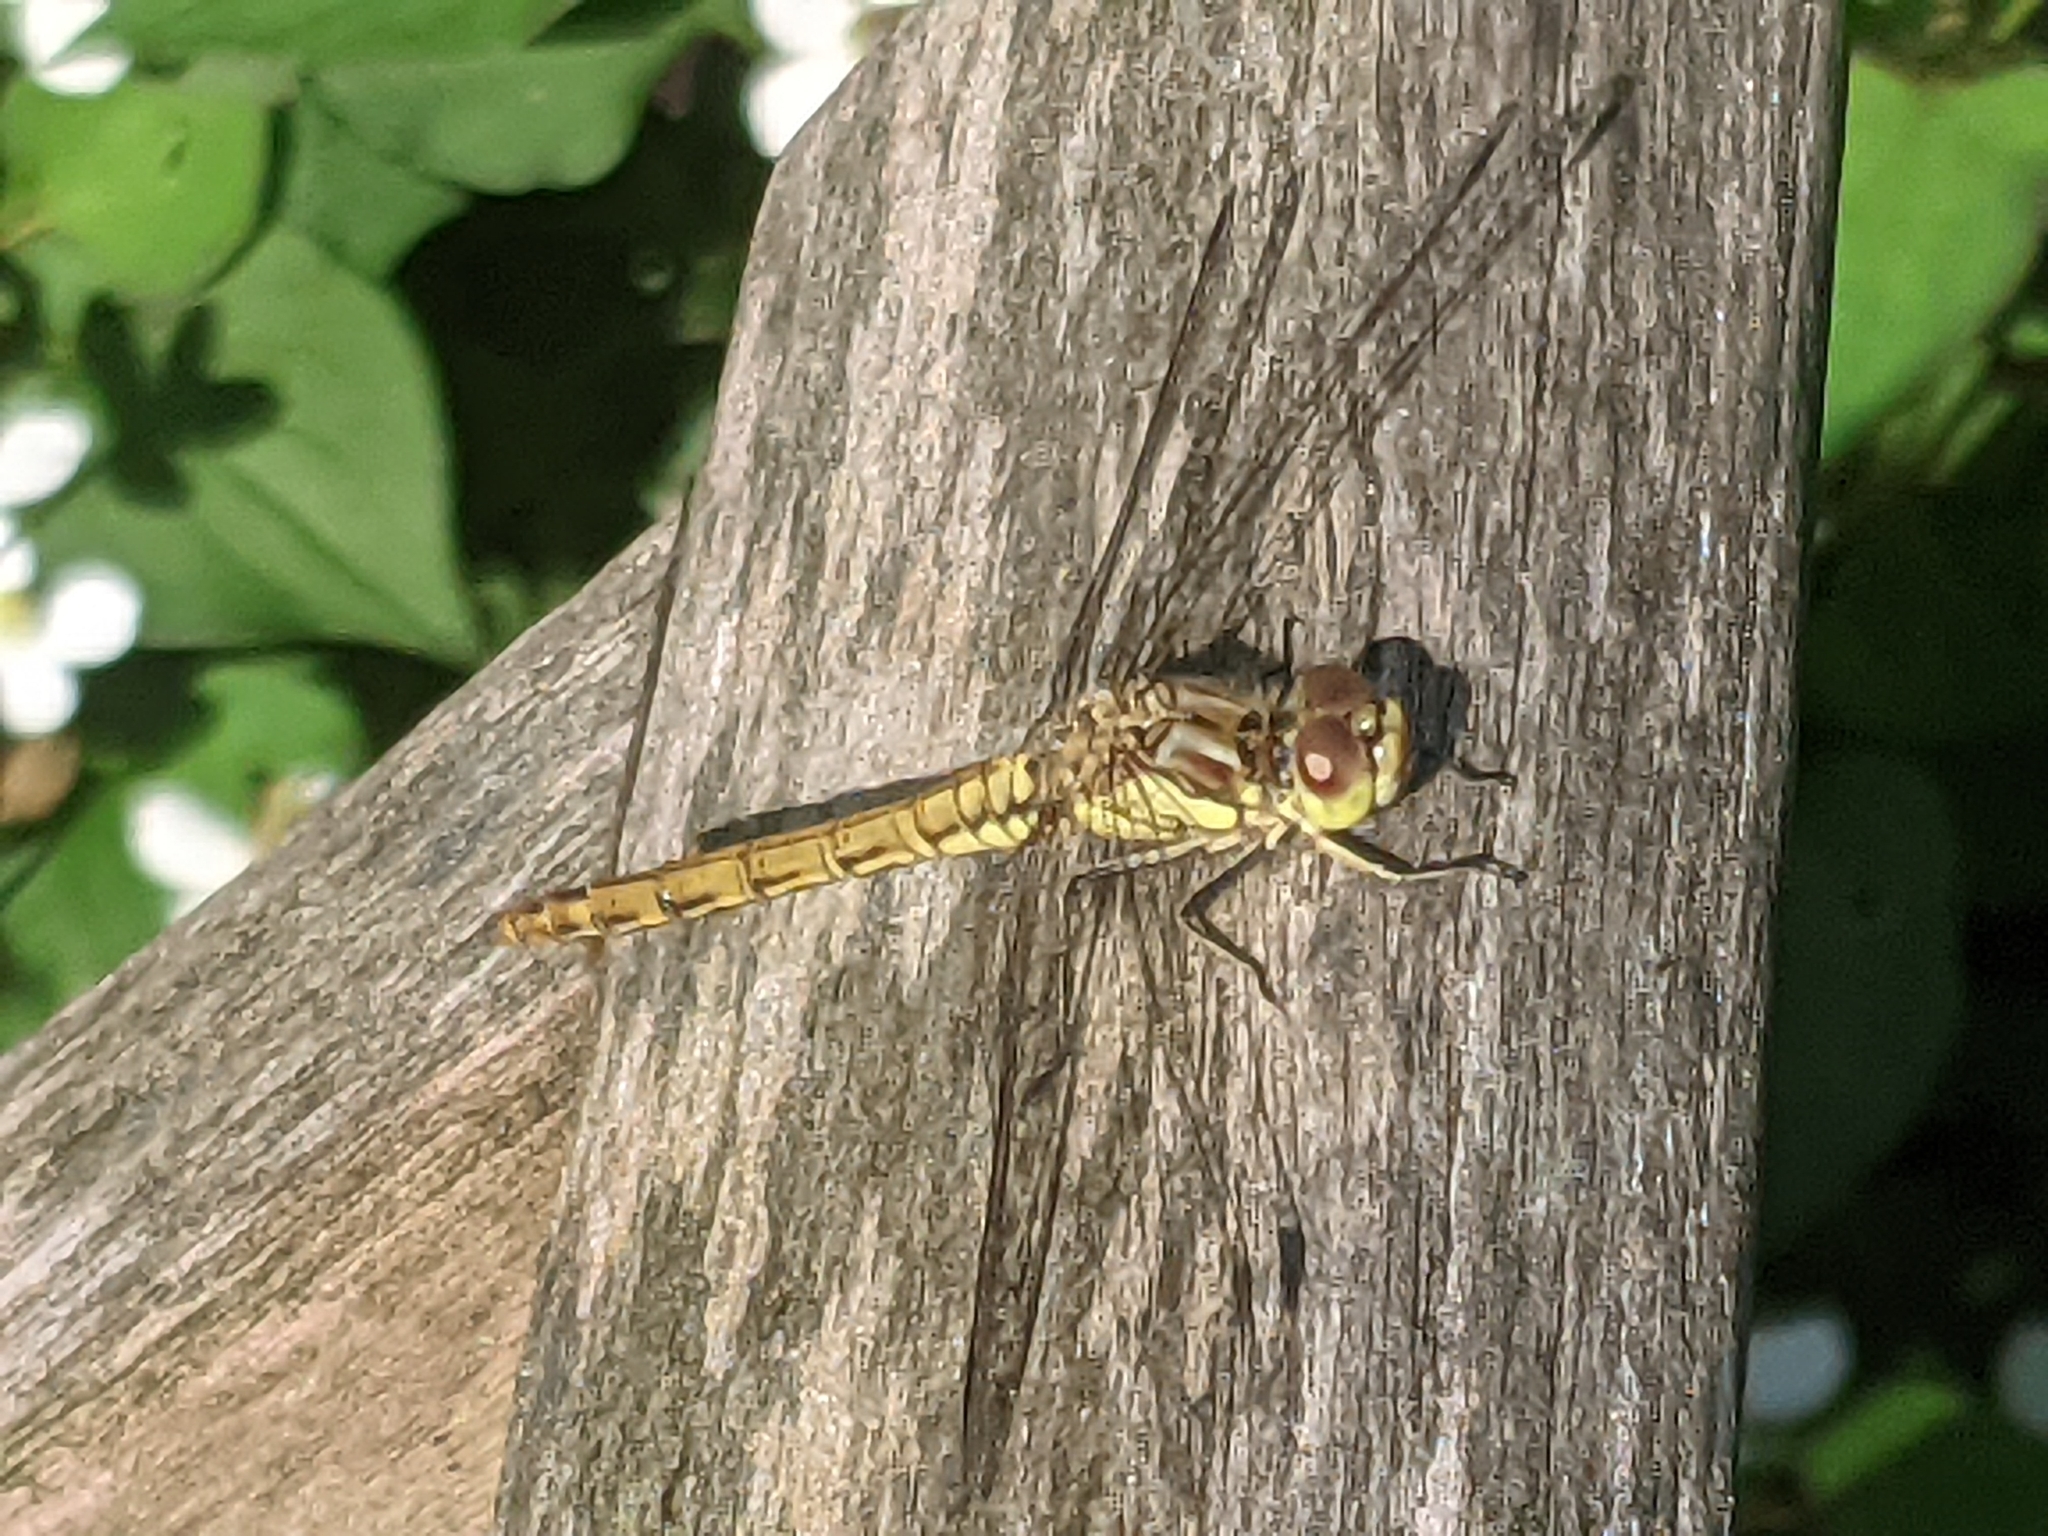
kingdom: Animalia
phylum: Arthropoda
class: Insecta
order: Odonata
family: Libellulidae
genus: Sympetrum
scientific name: Sympetrum vulgatum
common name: Vagrant darter
